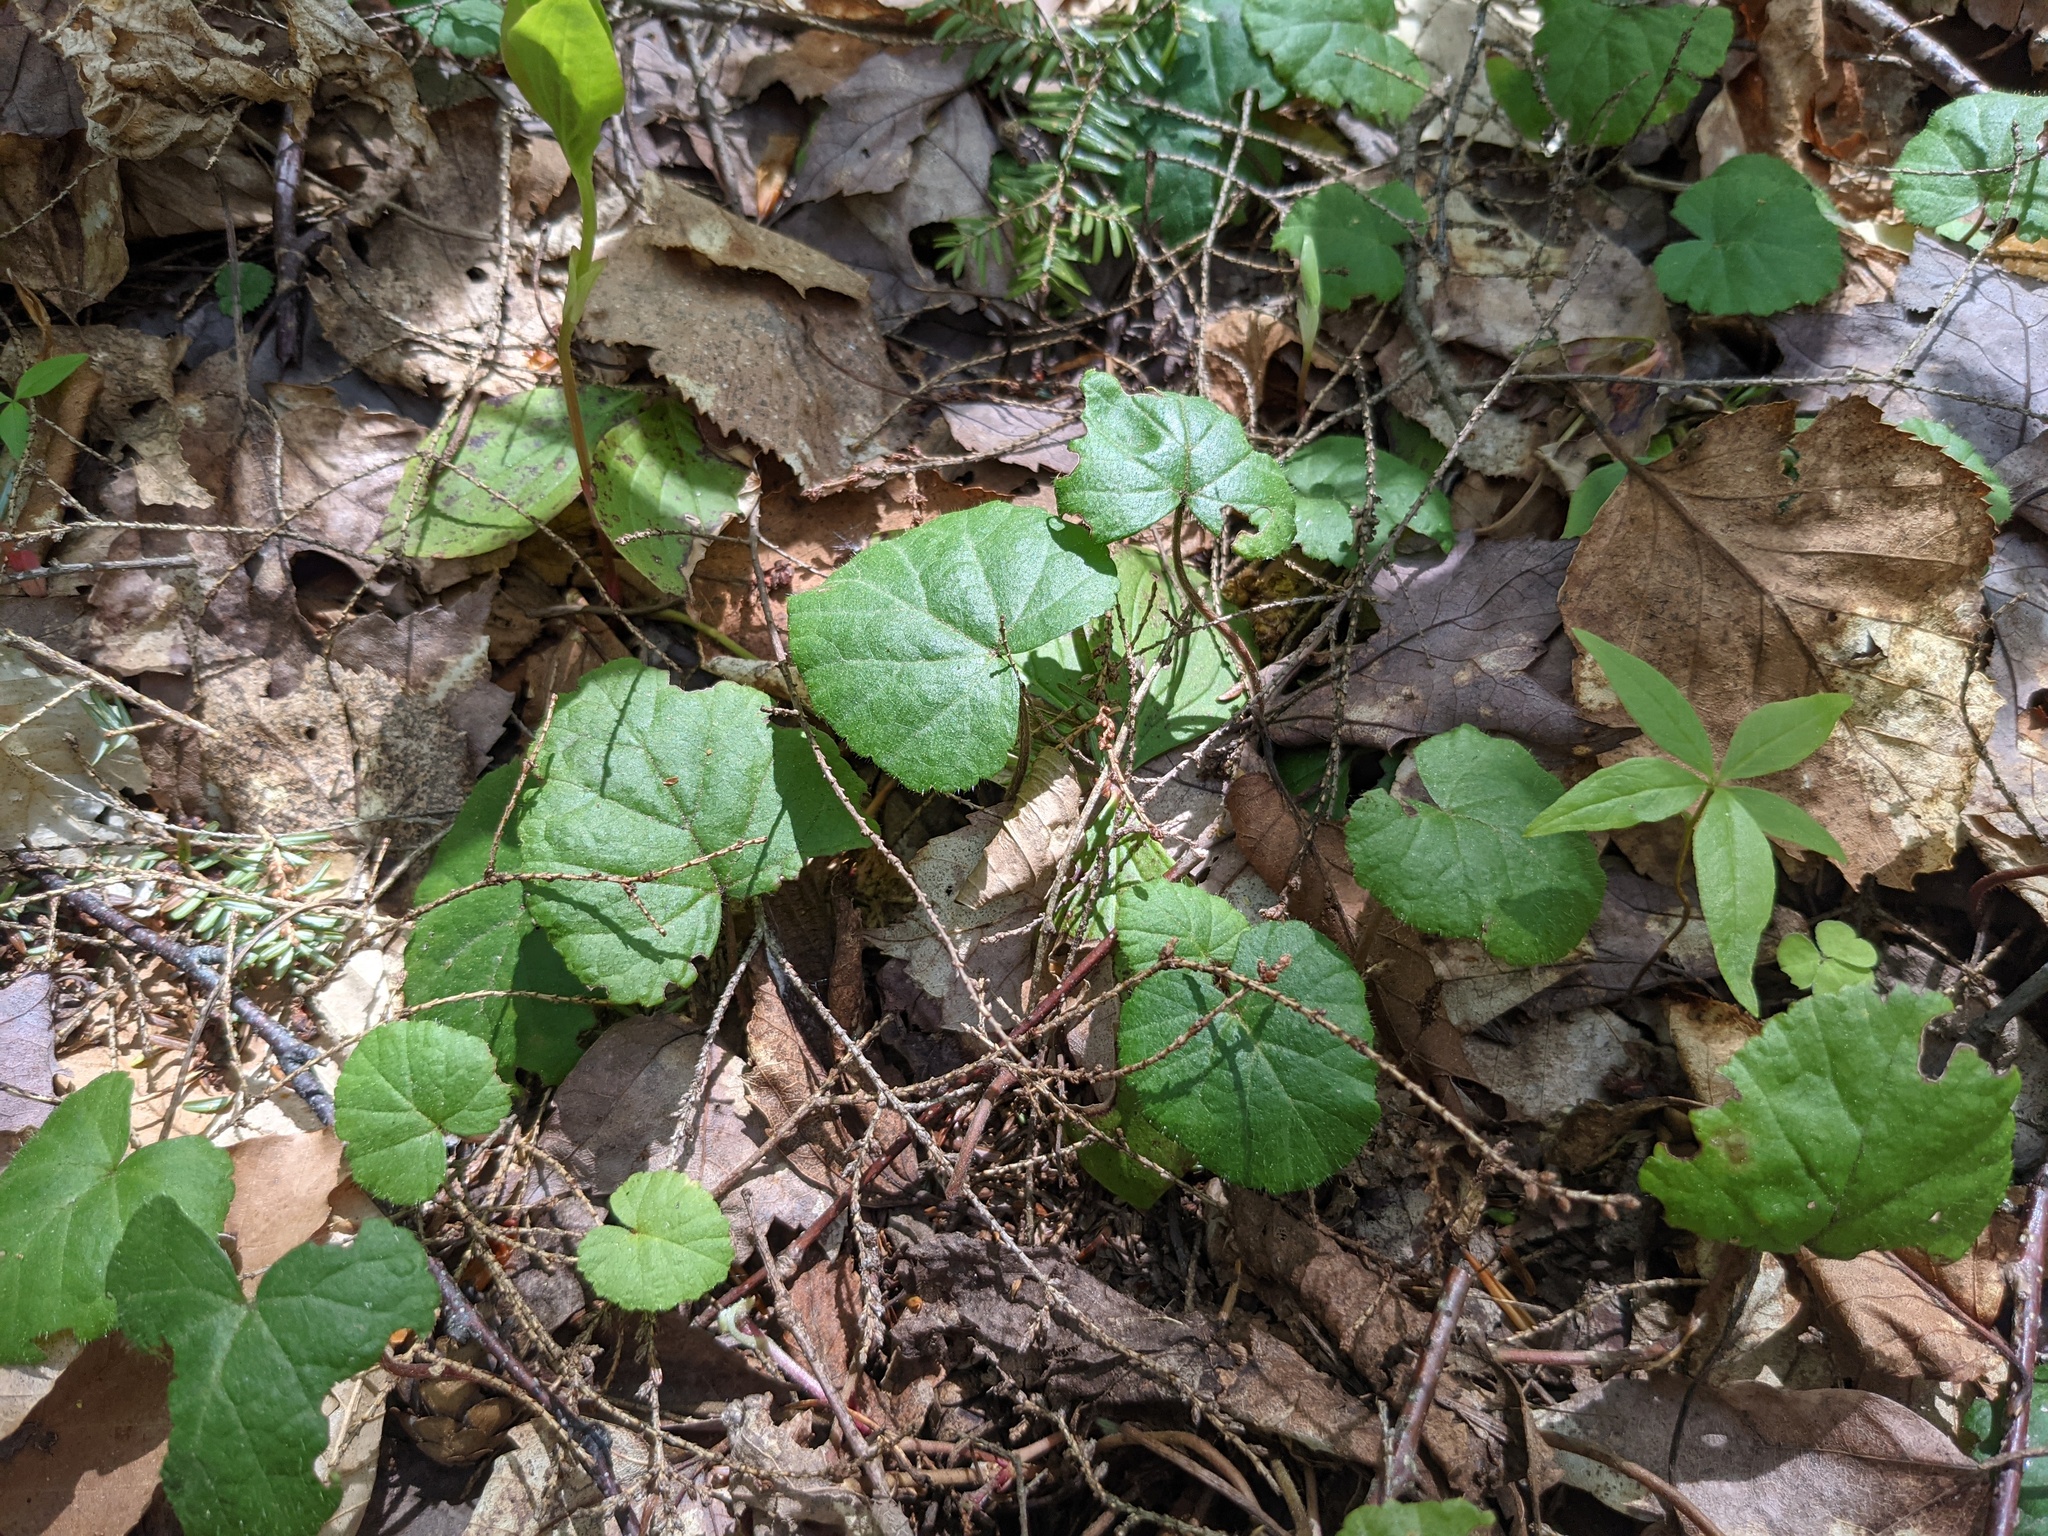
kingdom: Plantae
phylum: Tracheophyta
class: Magnoliopsida
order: Rosales
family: Rosaceae
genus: Dalibarda
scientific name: Dalibarda repens
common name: Dewdrop
